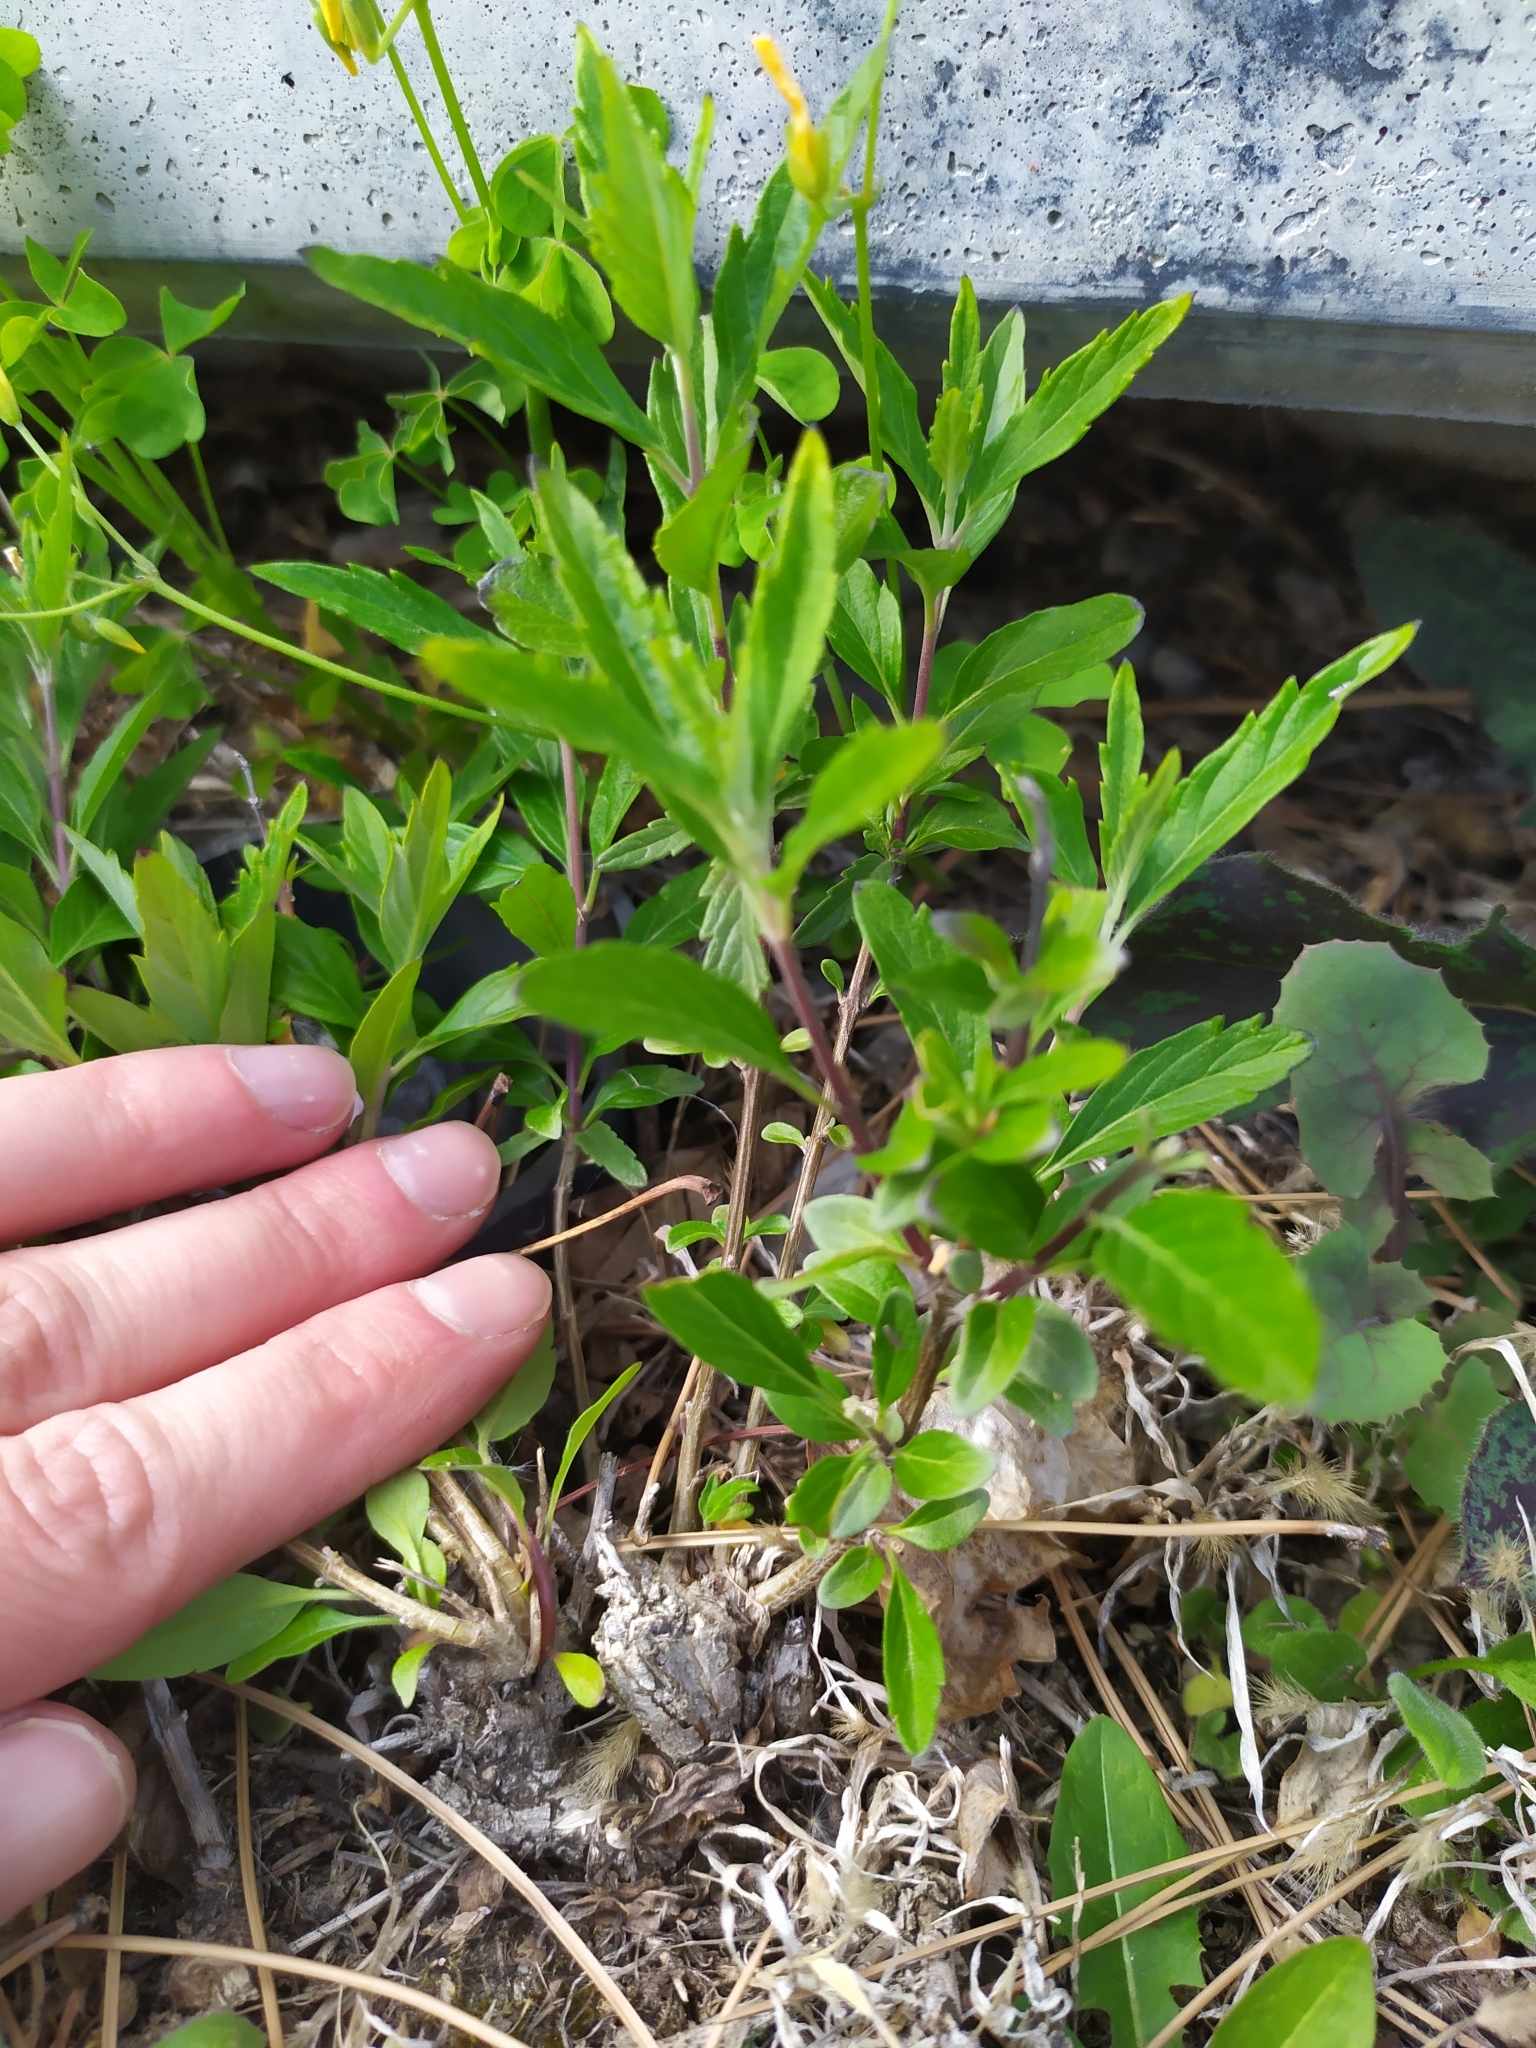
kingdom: Plantae
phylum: Tracheophyta
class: Magnoliopsida
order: Lamiales
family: Lamiaceae
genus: Caryopteris
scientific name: Caryopteris clandonensis
